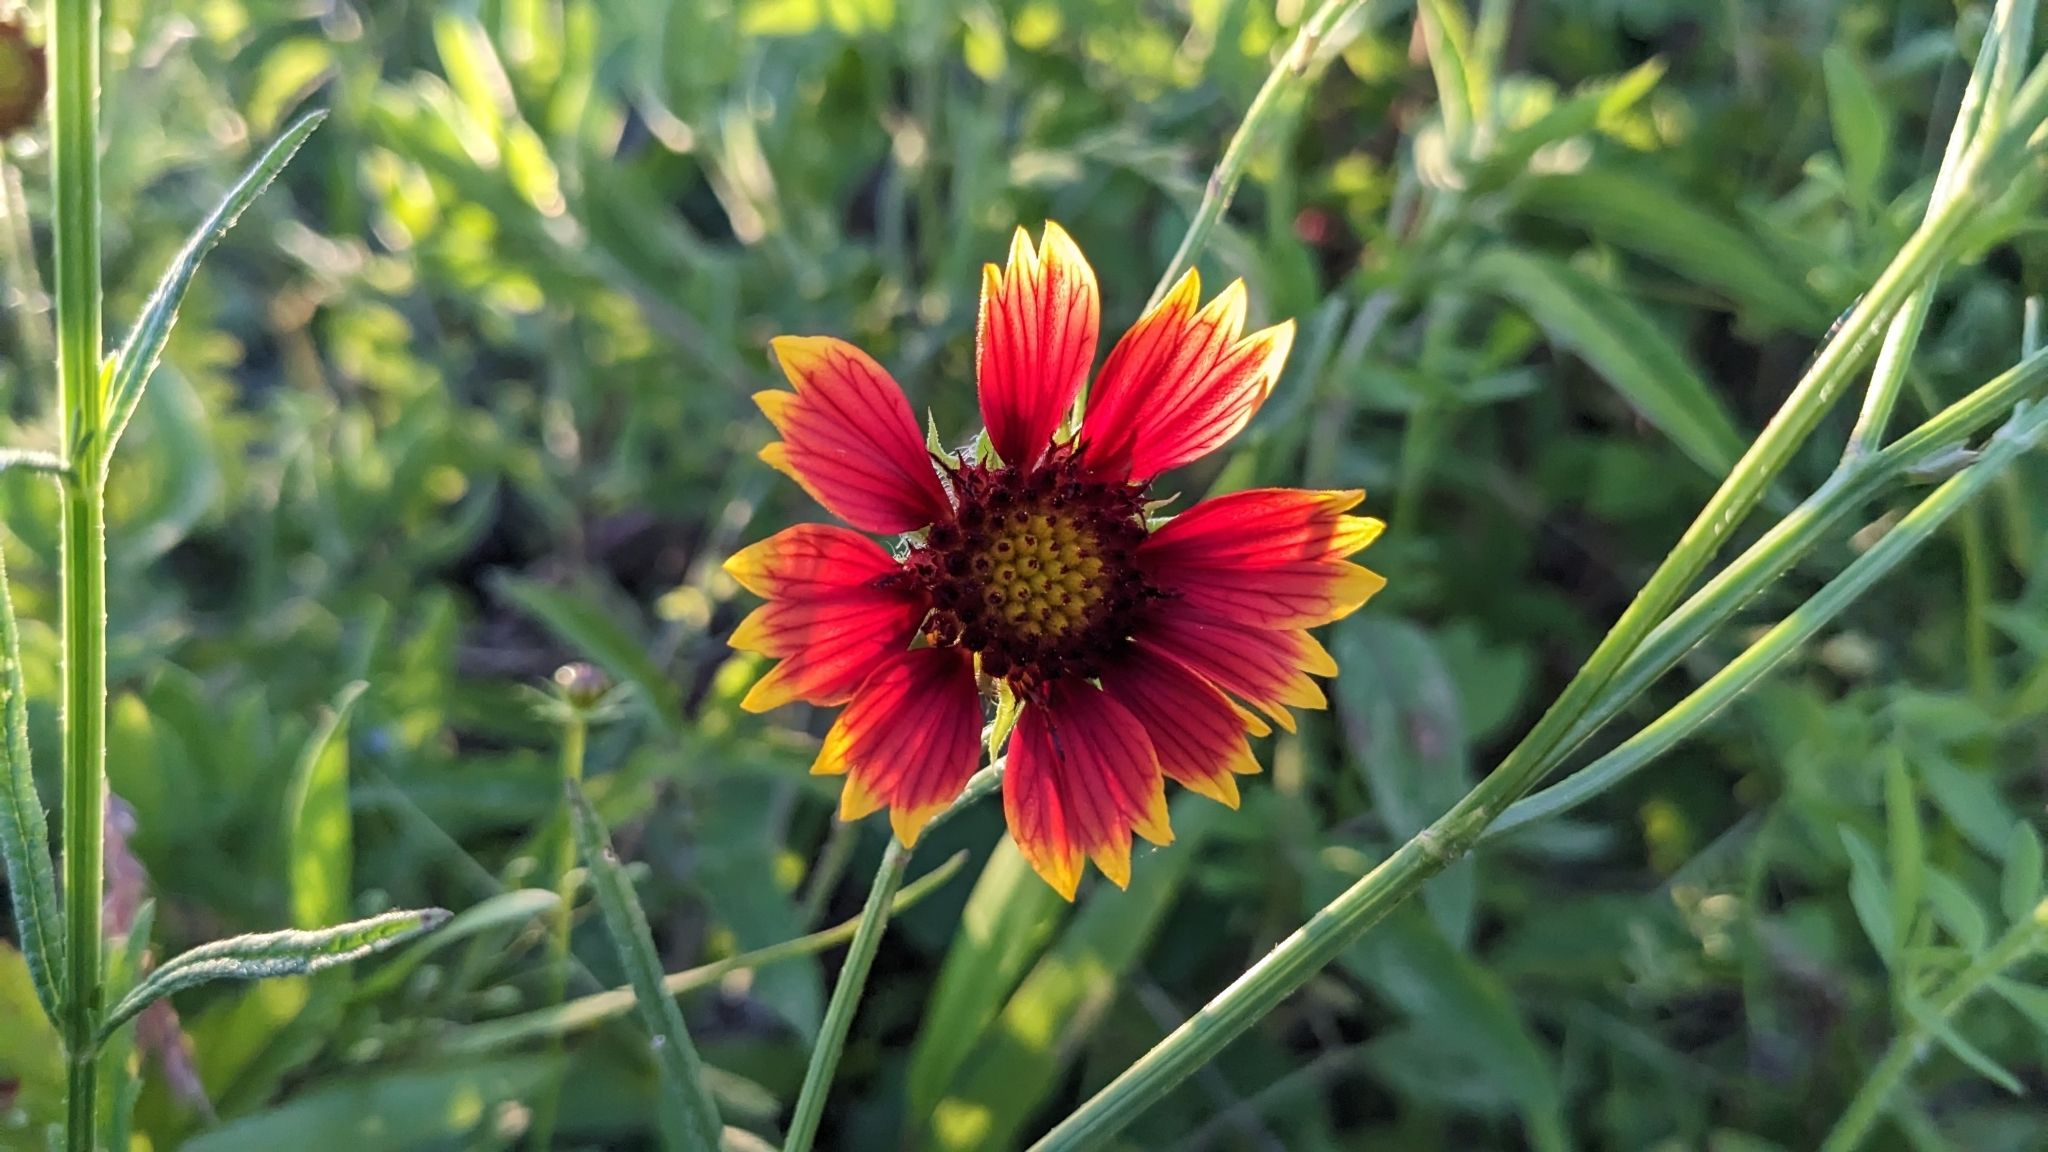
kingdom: Plantae
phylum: Tracheophyta
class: Magnoliopsida
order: Asterales
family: Asteraceae
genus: Gaillardia
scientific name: Gaillardia pulchella
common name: Firewheel
